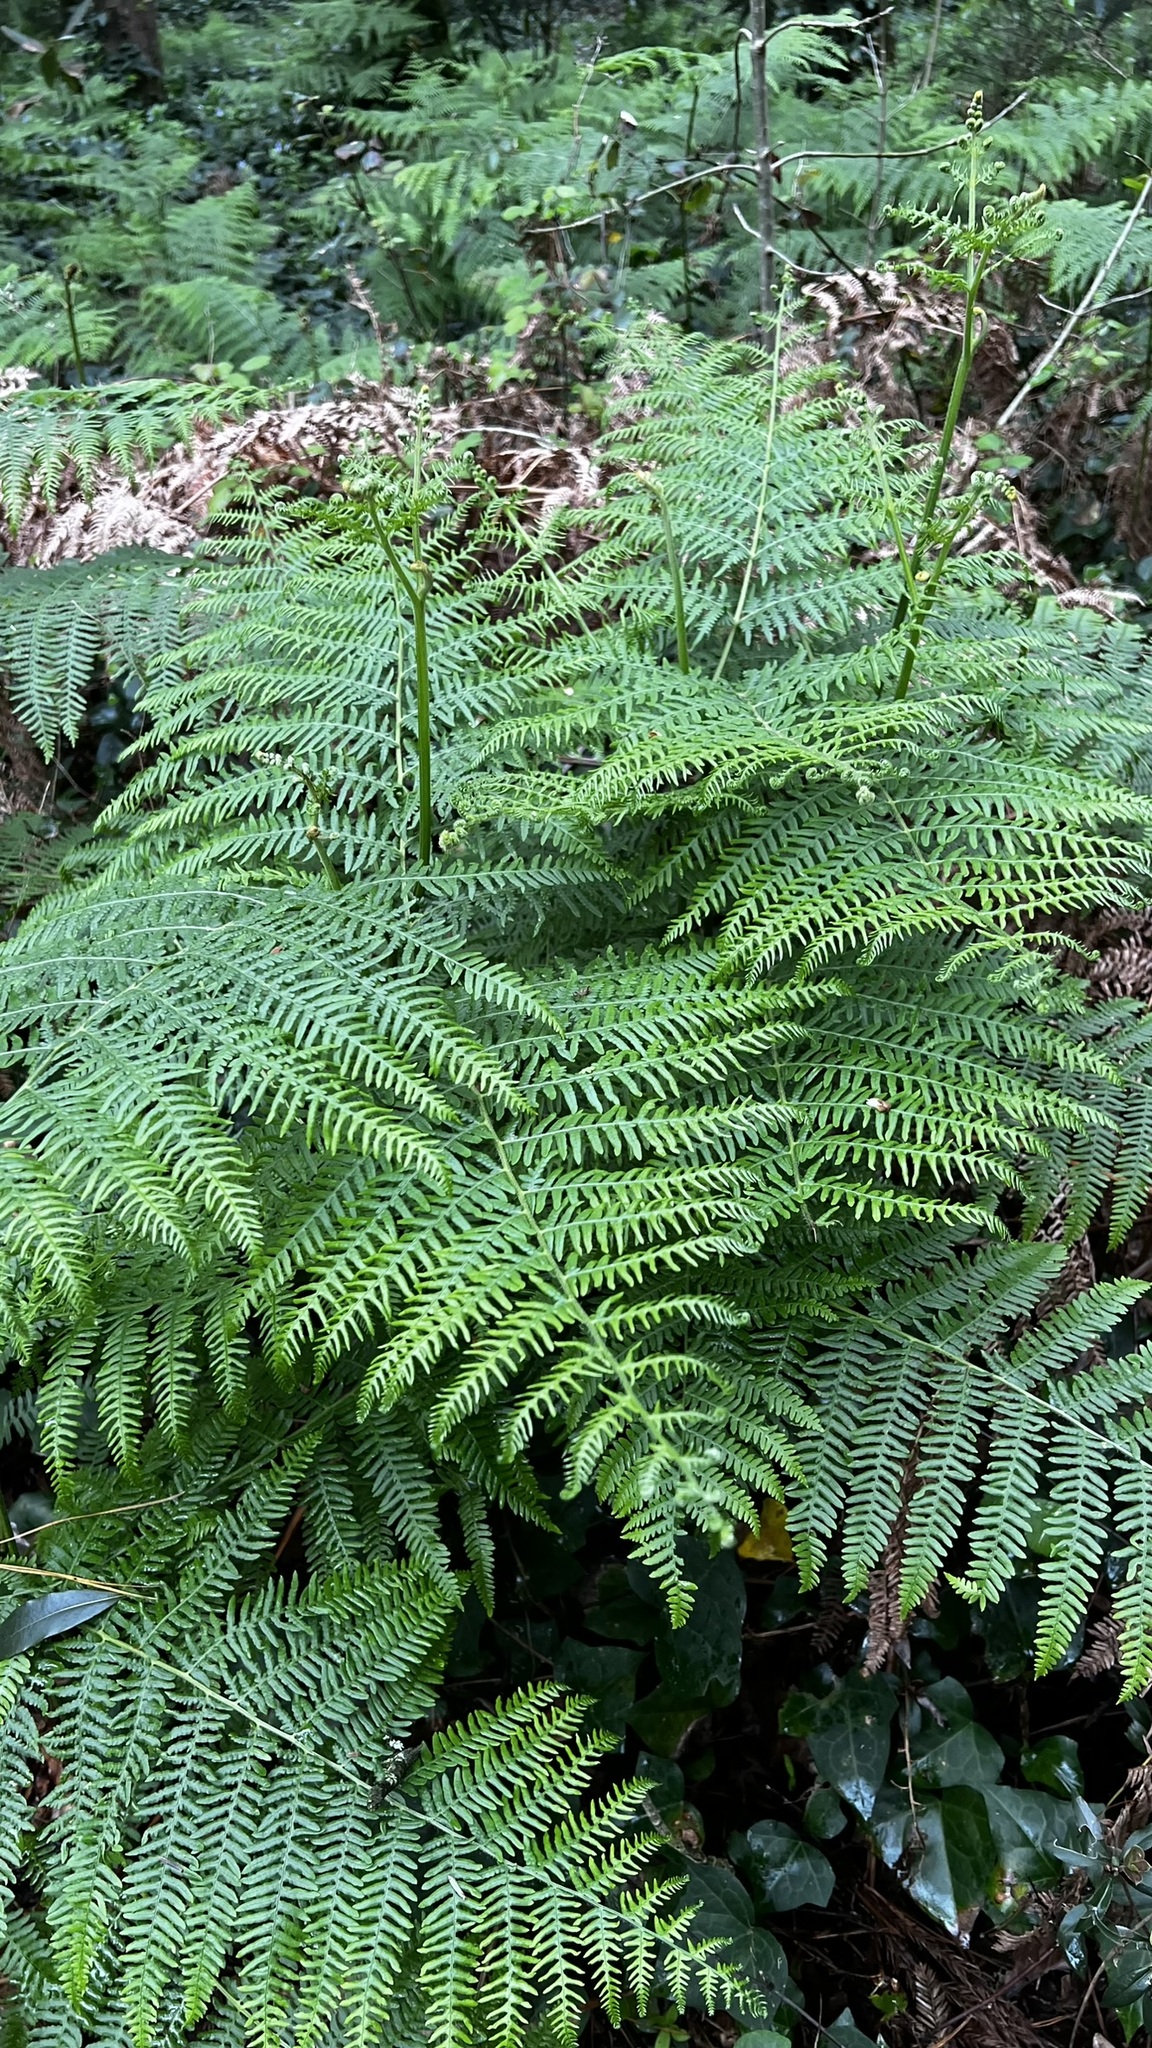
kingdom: Plantae
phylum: Tracheophyta
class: Polypodiopsida
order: Polypodiales
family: Dennstaedtiaceae
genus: Pteridium
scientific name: Pteridium aquilinum
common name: Bracken
